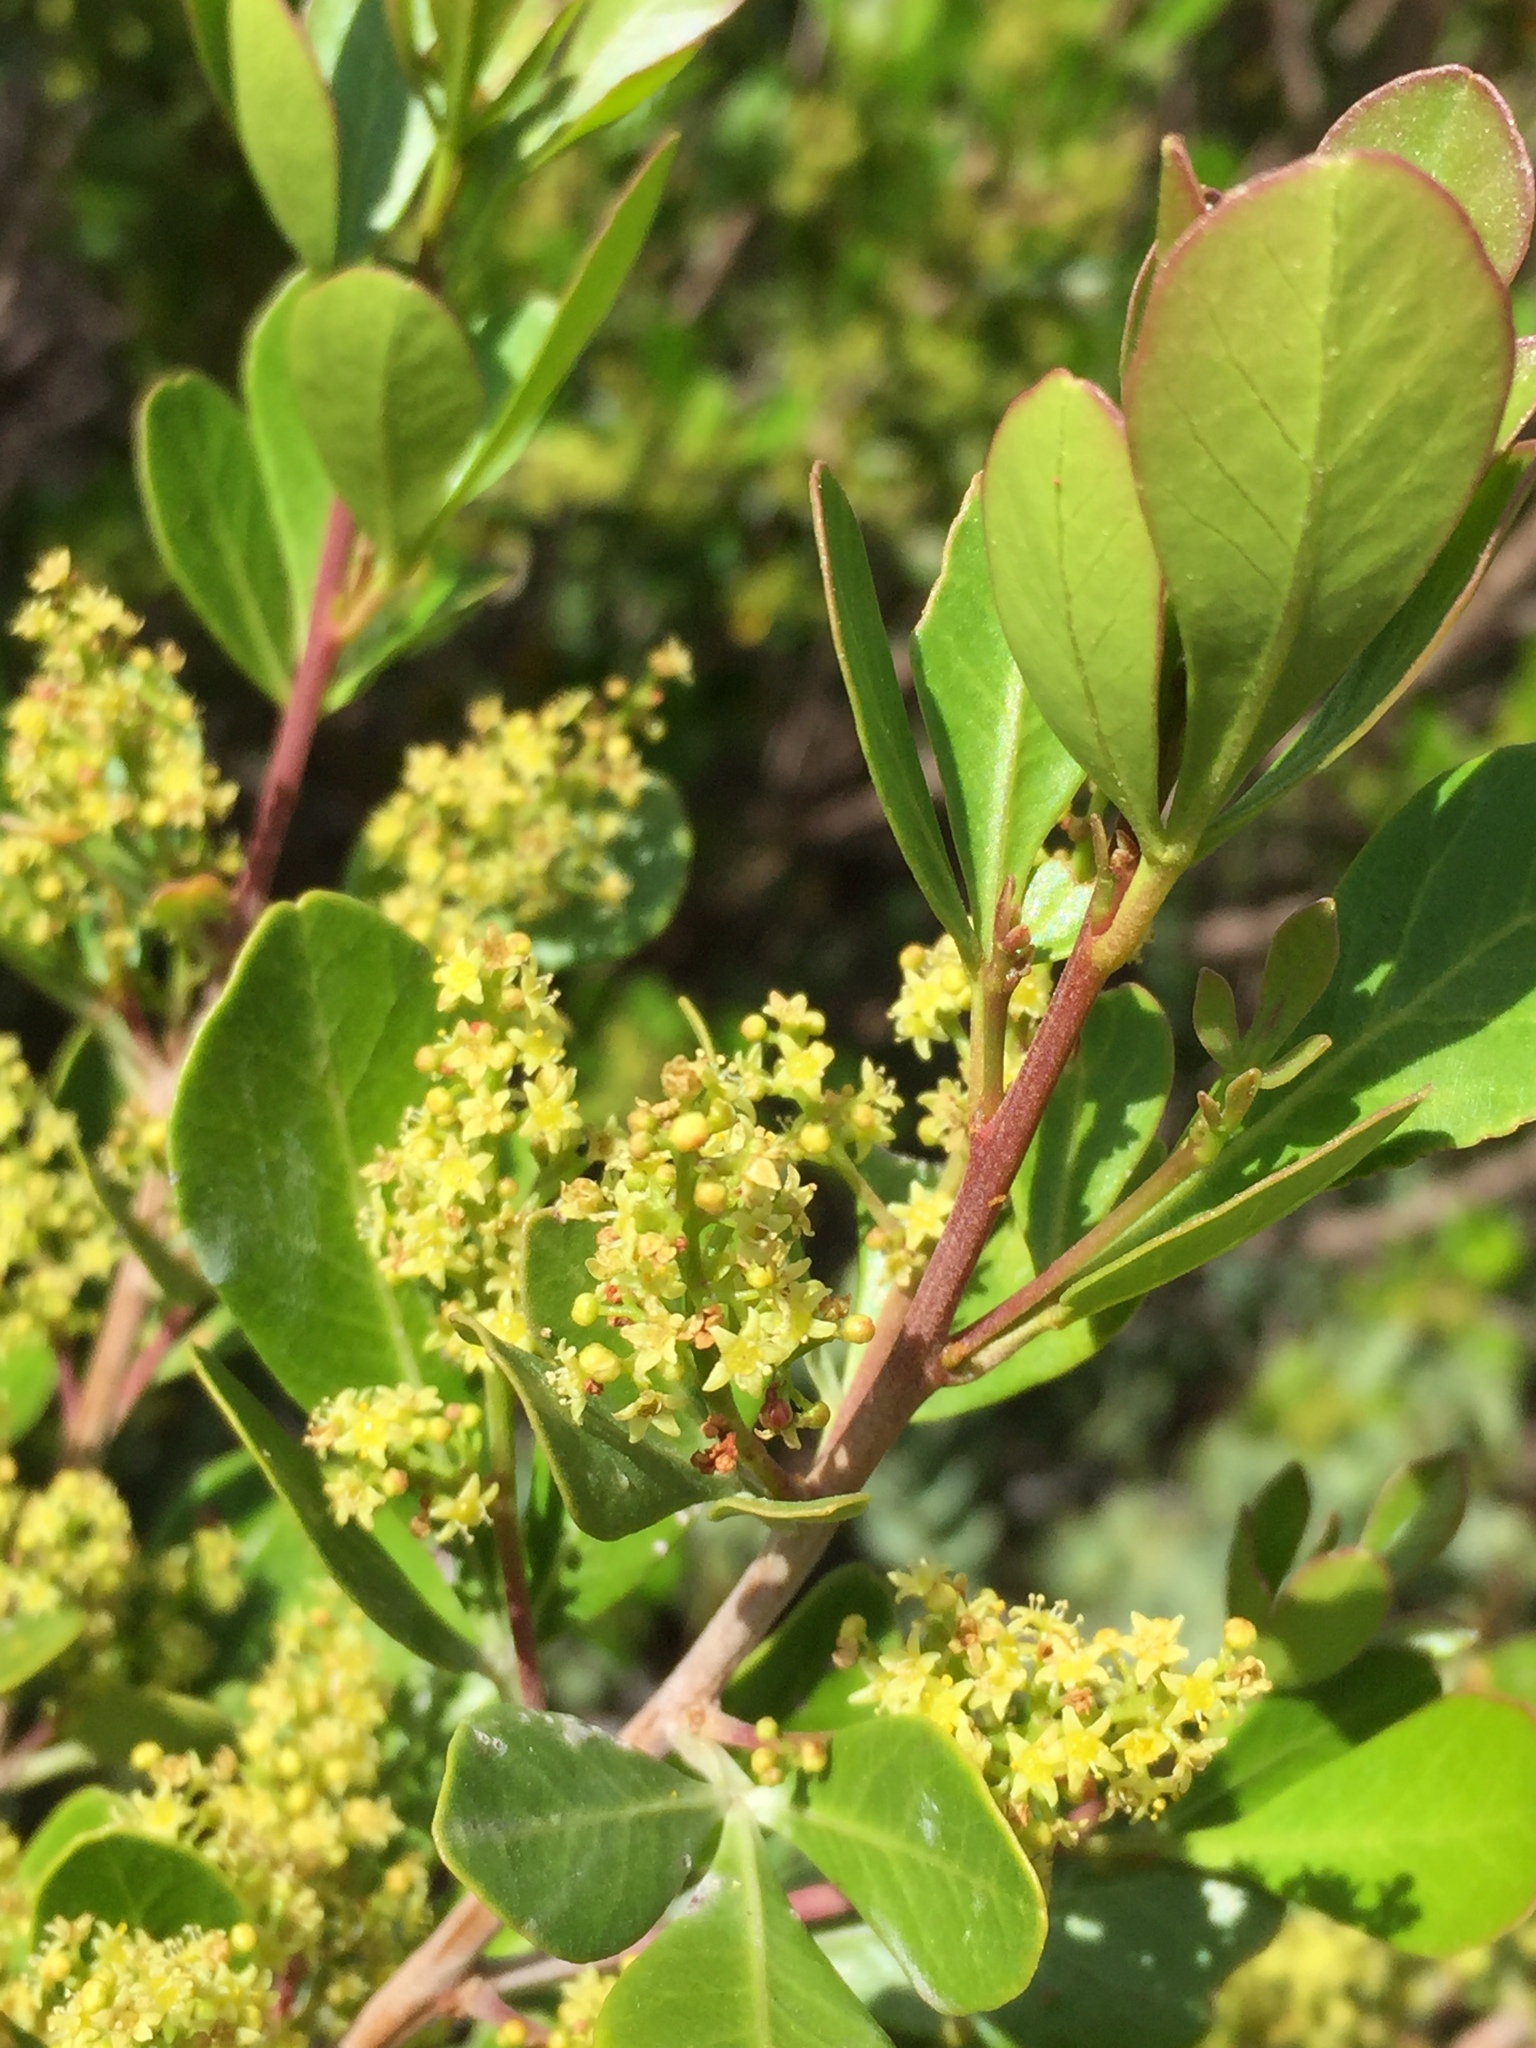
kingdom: Plantae
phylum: Tracheophyta
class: Magnoliopsida
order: Sapindales
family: Anacardiaceae
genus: Searsia
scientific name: Searsia lucida
